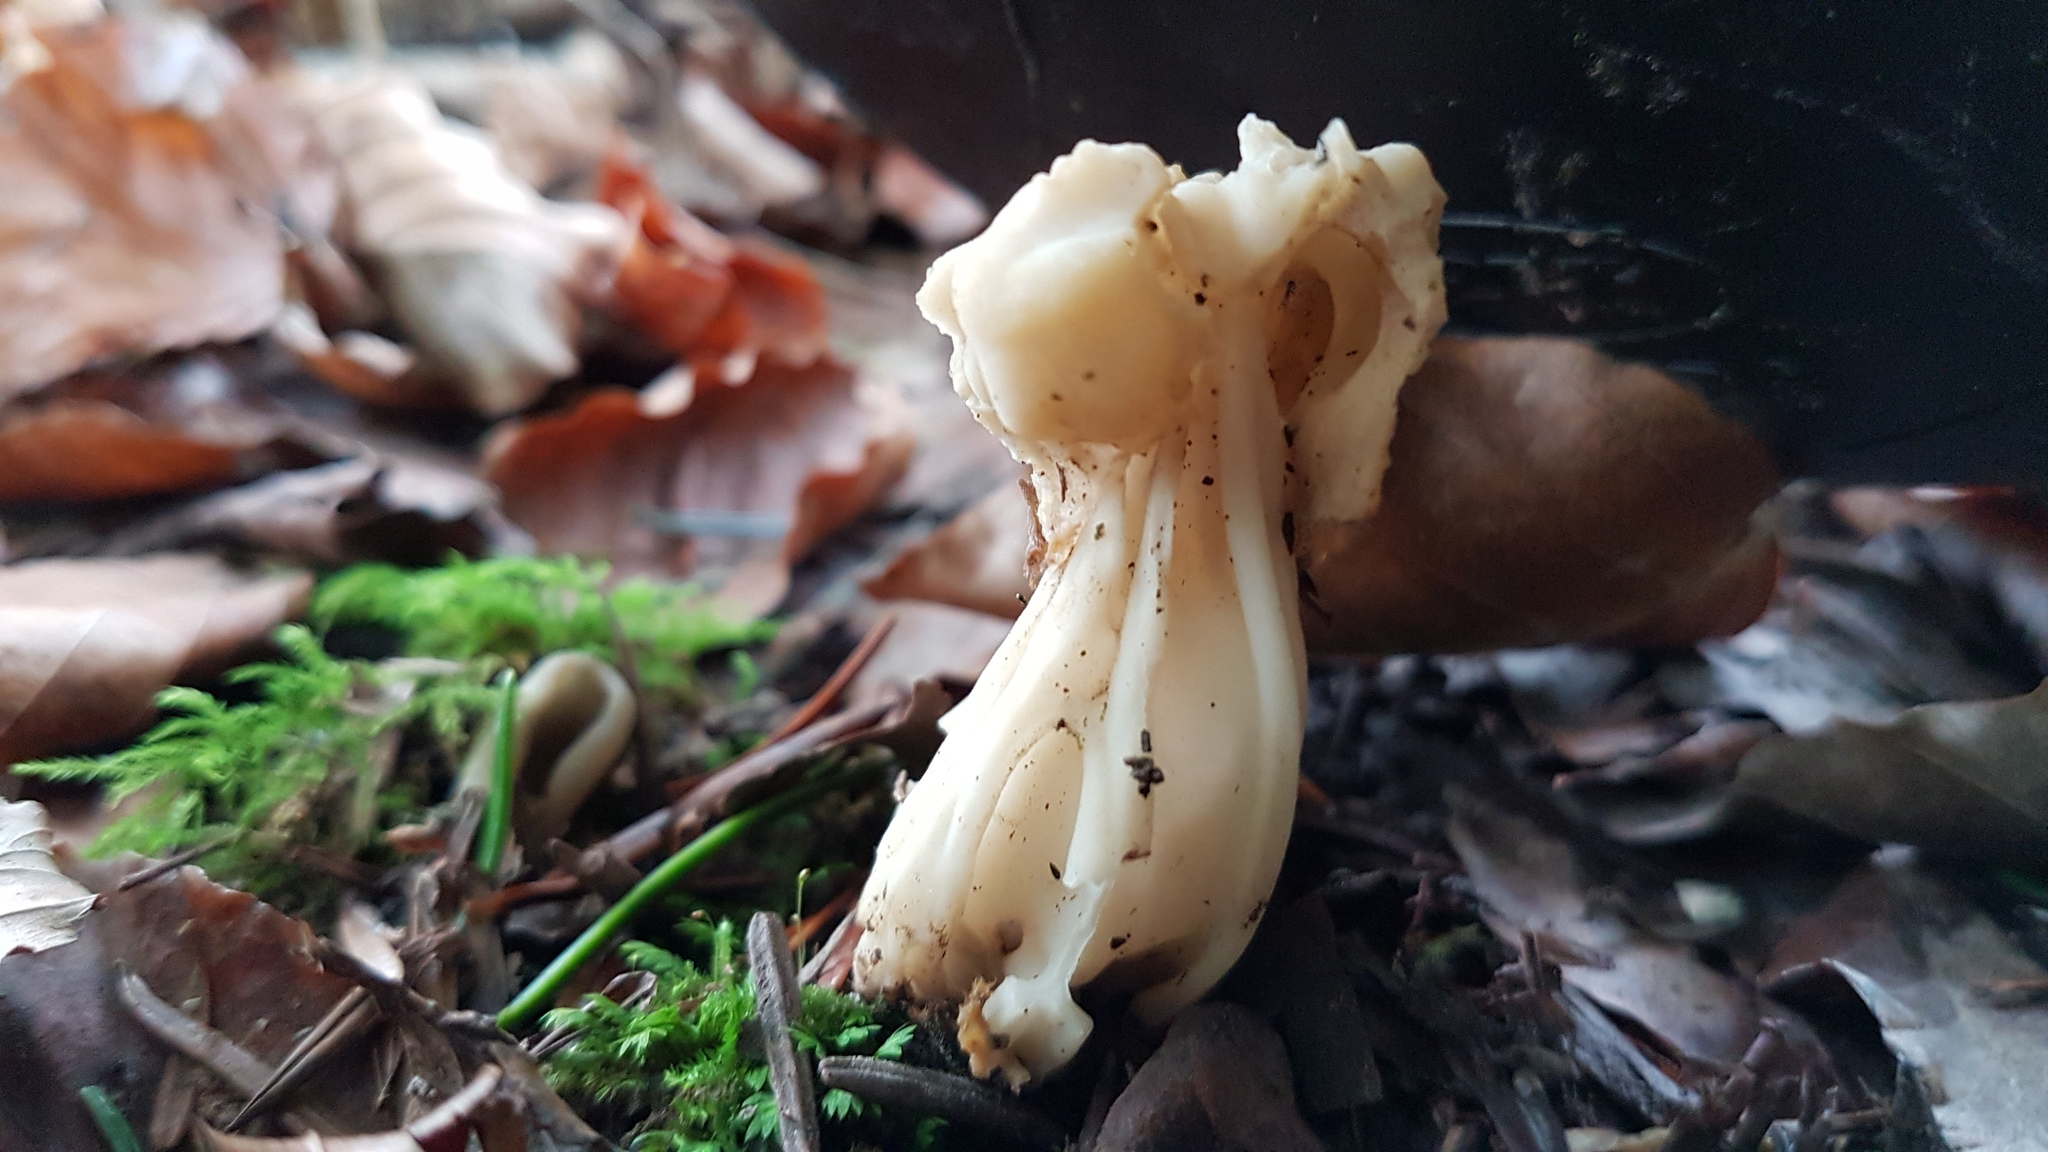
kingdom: Fungi
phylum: Ascomycota
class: Pezizomycetes
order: Pezizales
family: Helvellaceae
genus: Helvella
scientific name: Helvella crispa
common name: White saddle
